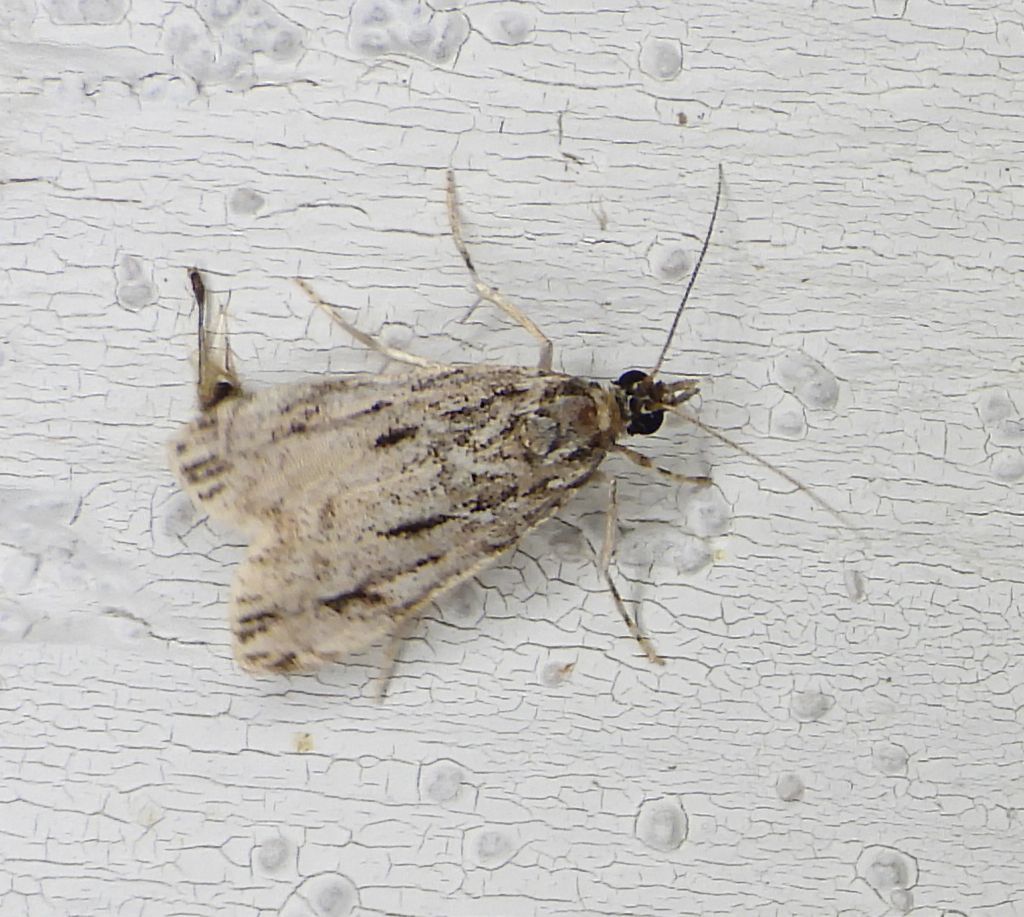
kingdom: Animalia
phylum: Arthropoda
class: Insecta
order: Lepidoptera
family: Crambidae
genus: Eudonia
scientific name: Eudonia strigalis
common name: Striped eudonia moth
